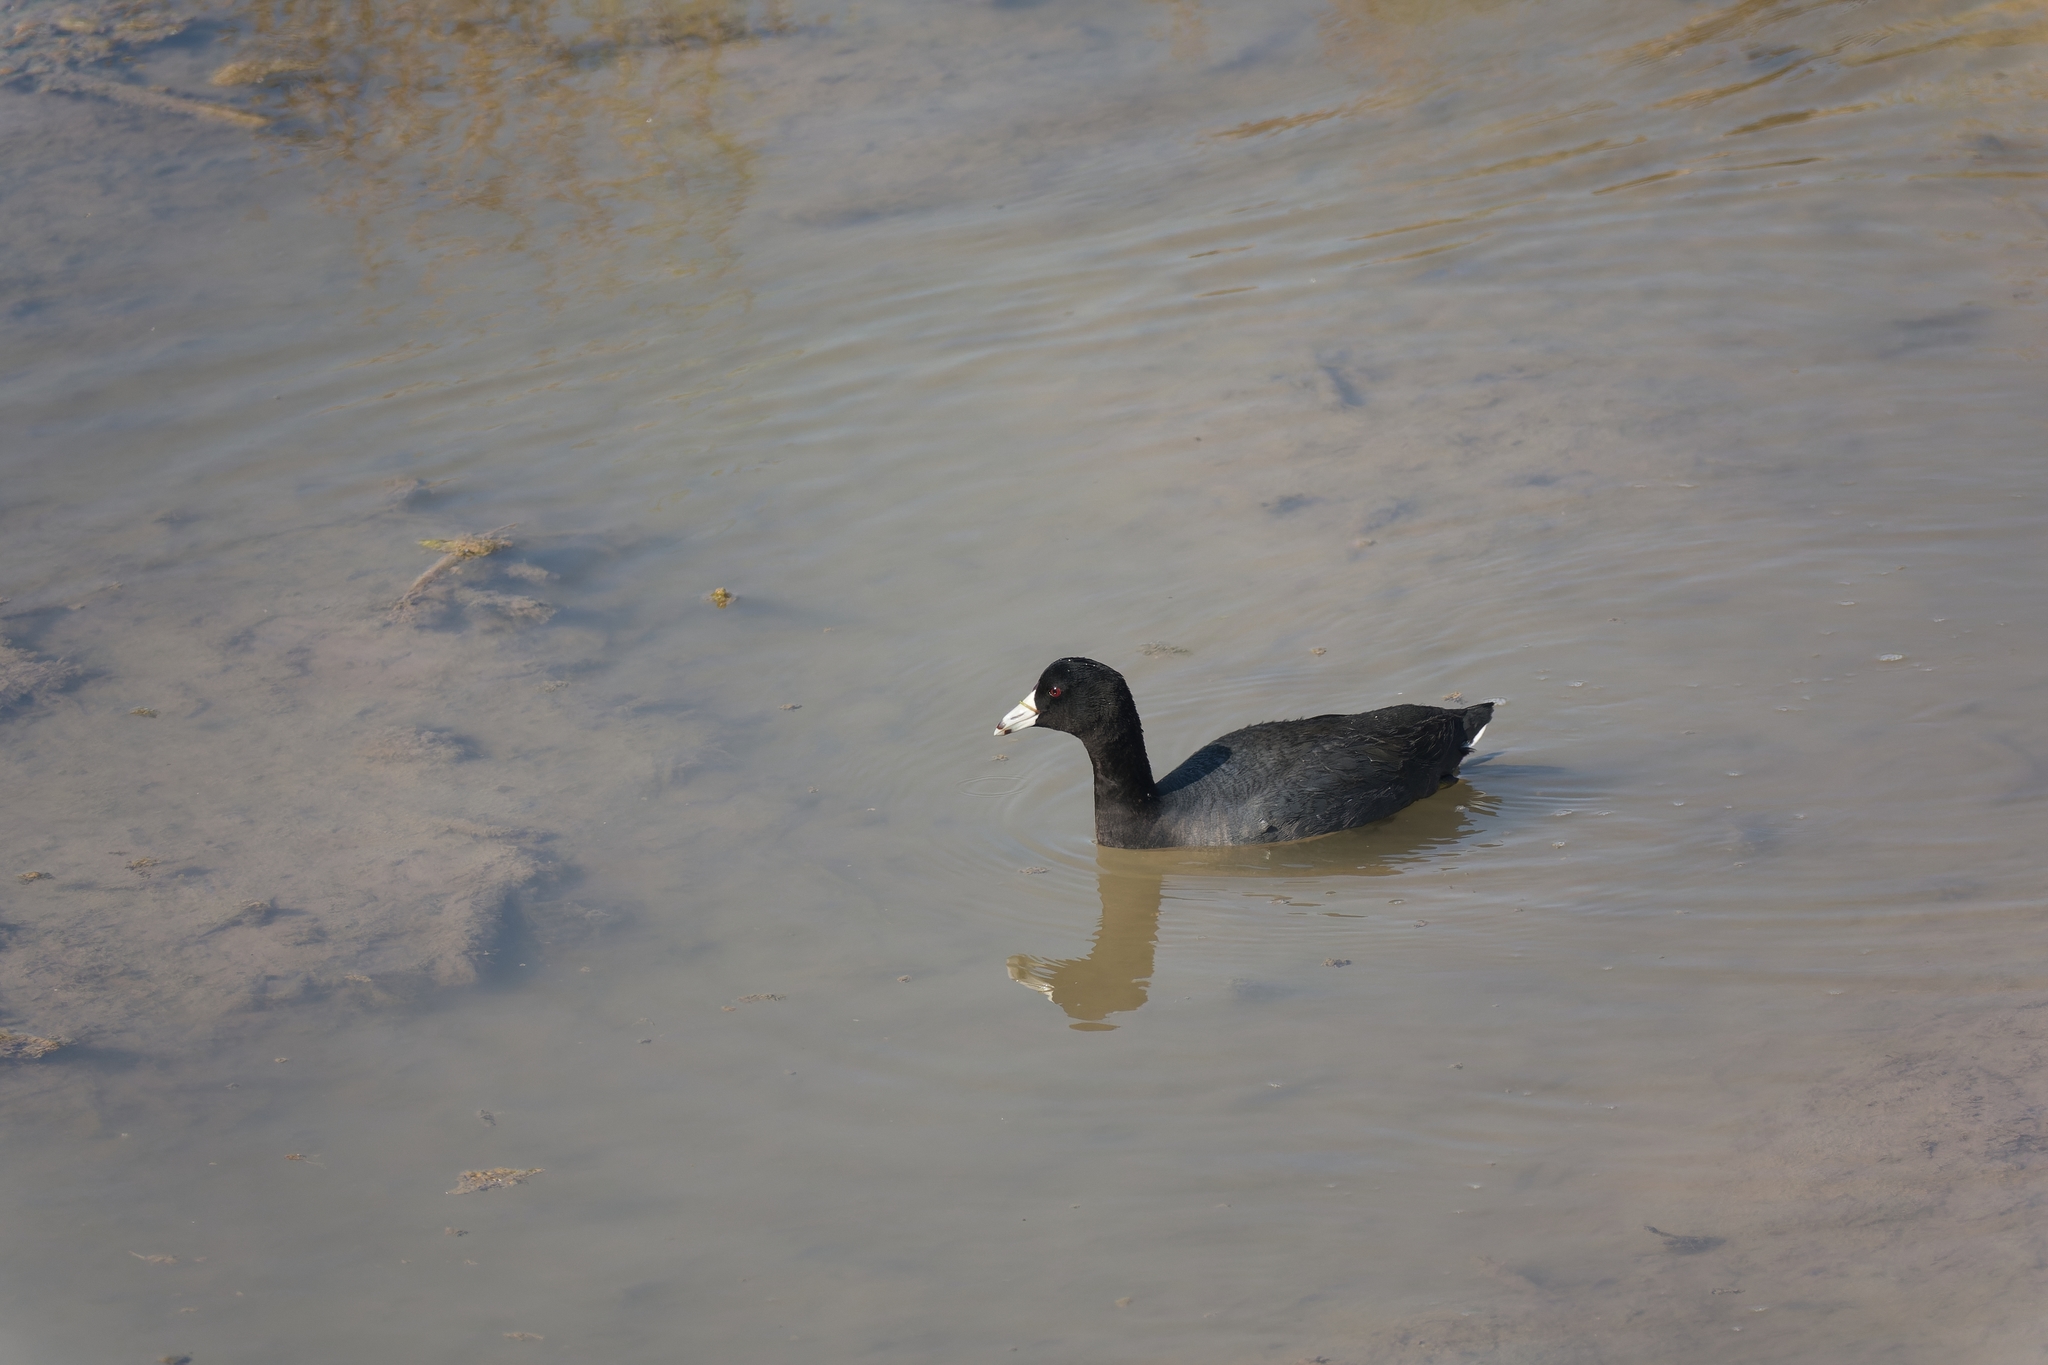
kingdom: Animalia
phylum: Chordata
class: Aves
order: Gruiformes
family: Rallidae
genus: Fulica
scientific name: Fulica americana
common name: American coot
